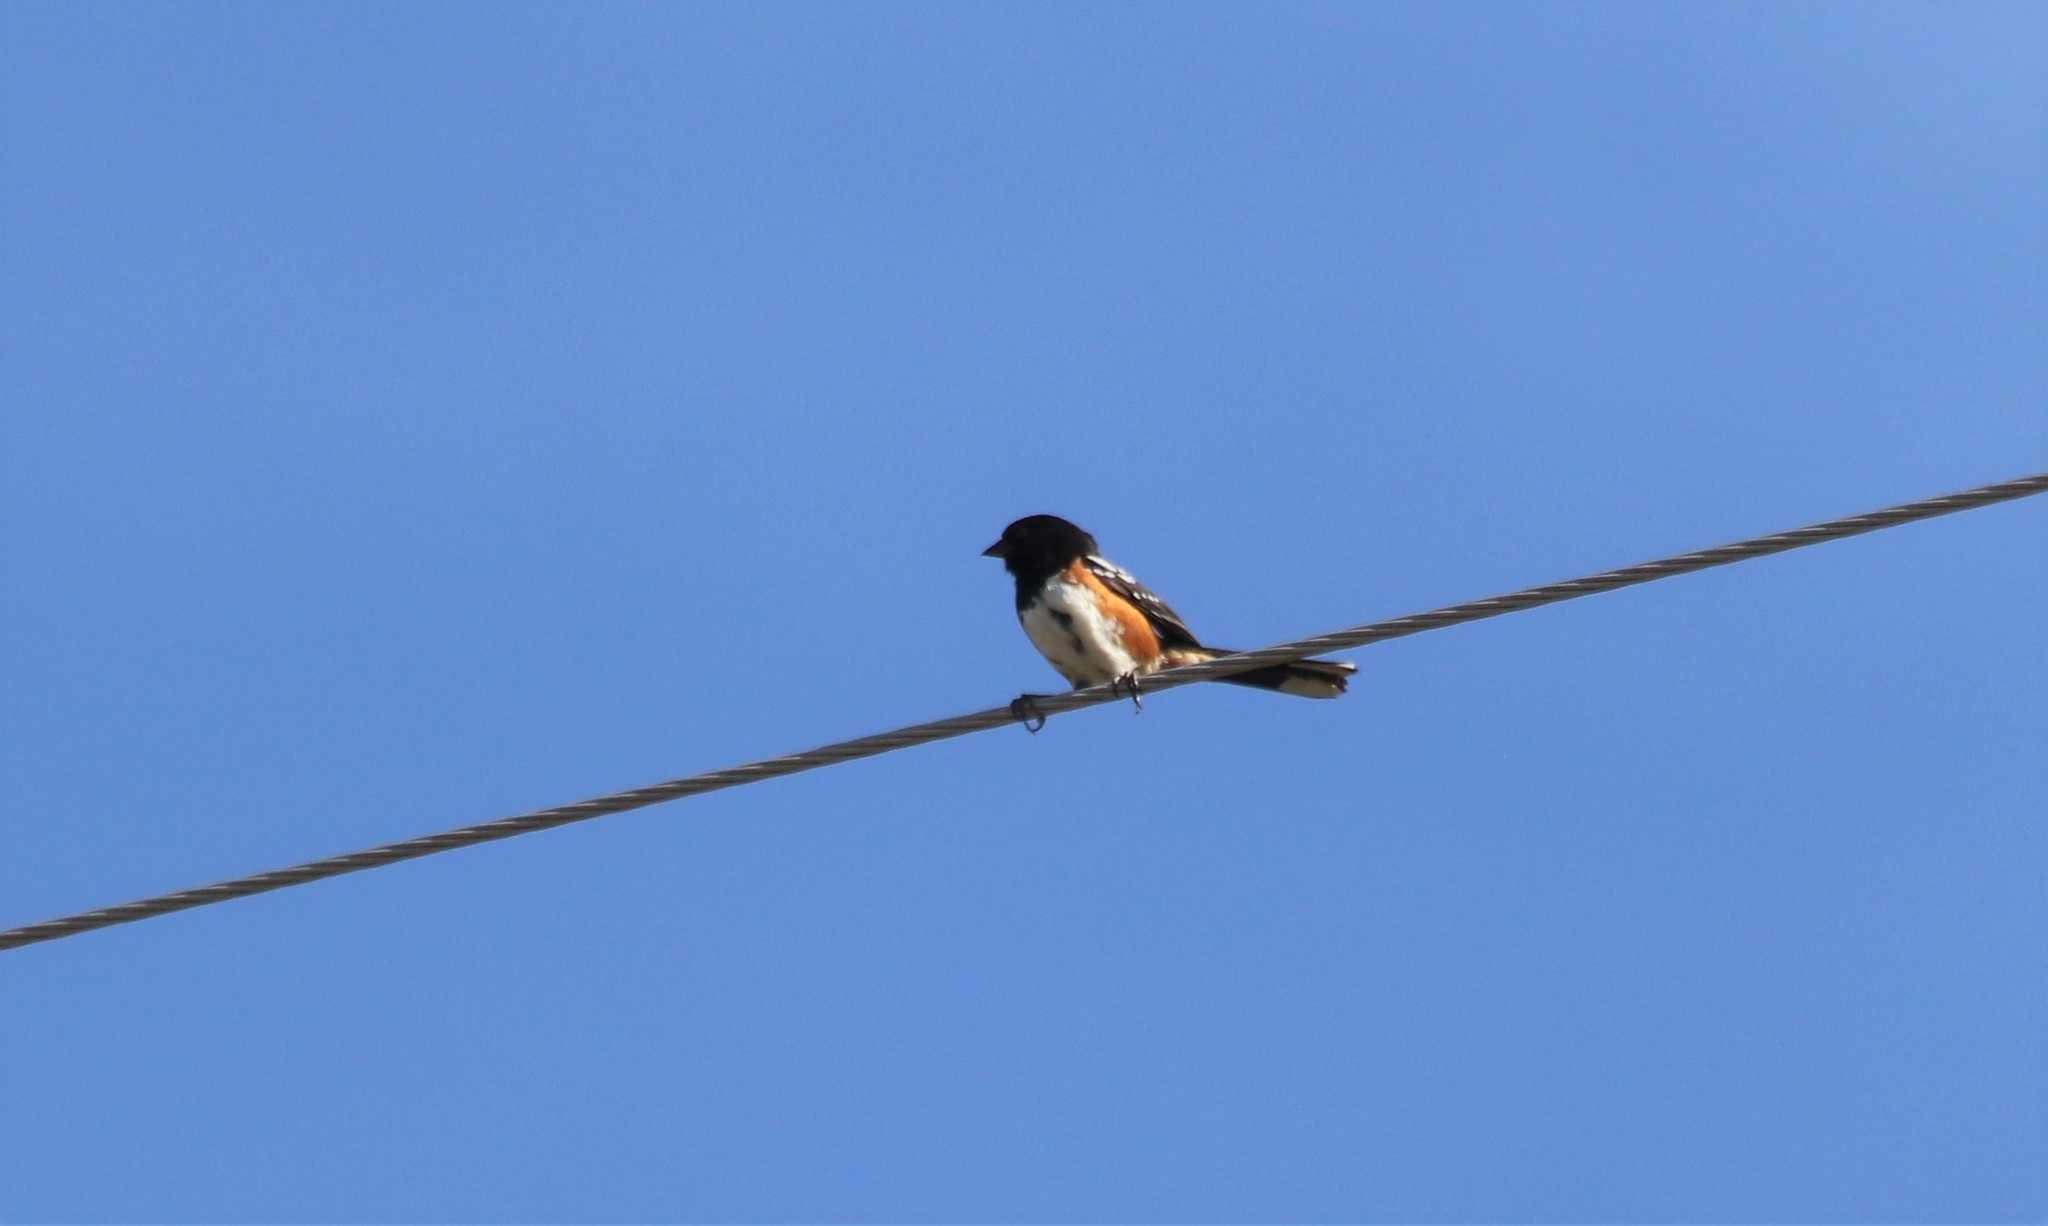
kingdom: Animalia
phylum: Chordata
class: Aves
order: Passeriformes
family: Passerellidae
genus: Pipilo
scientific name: Pipilo maculatus
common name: Spotted towhee
